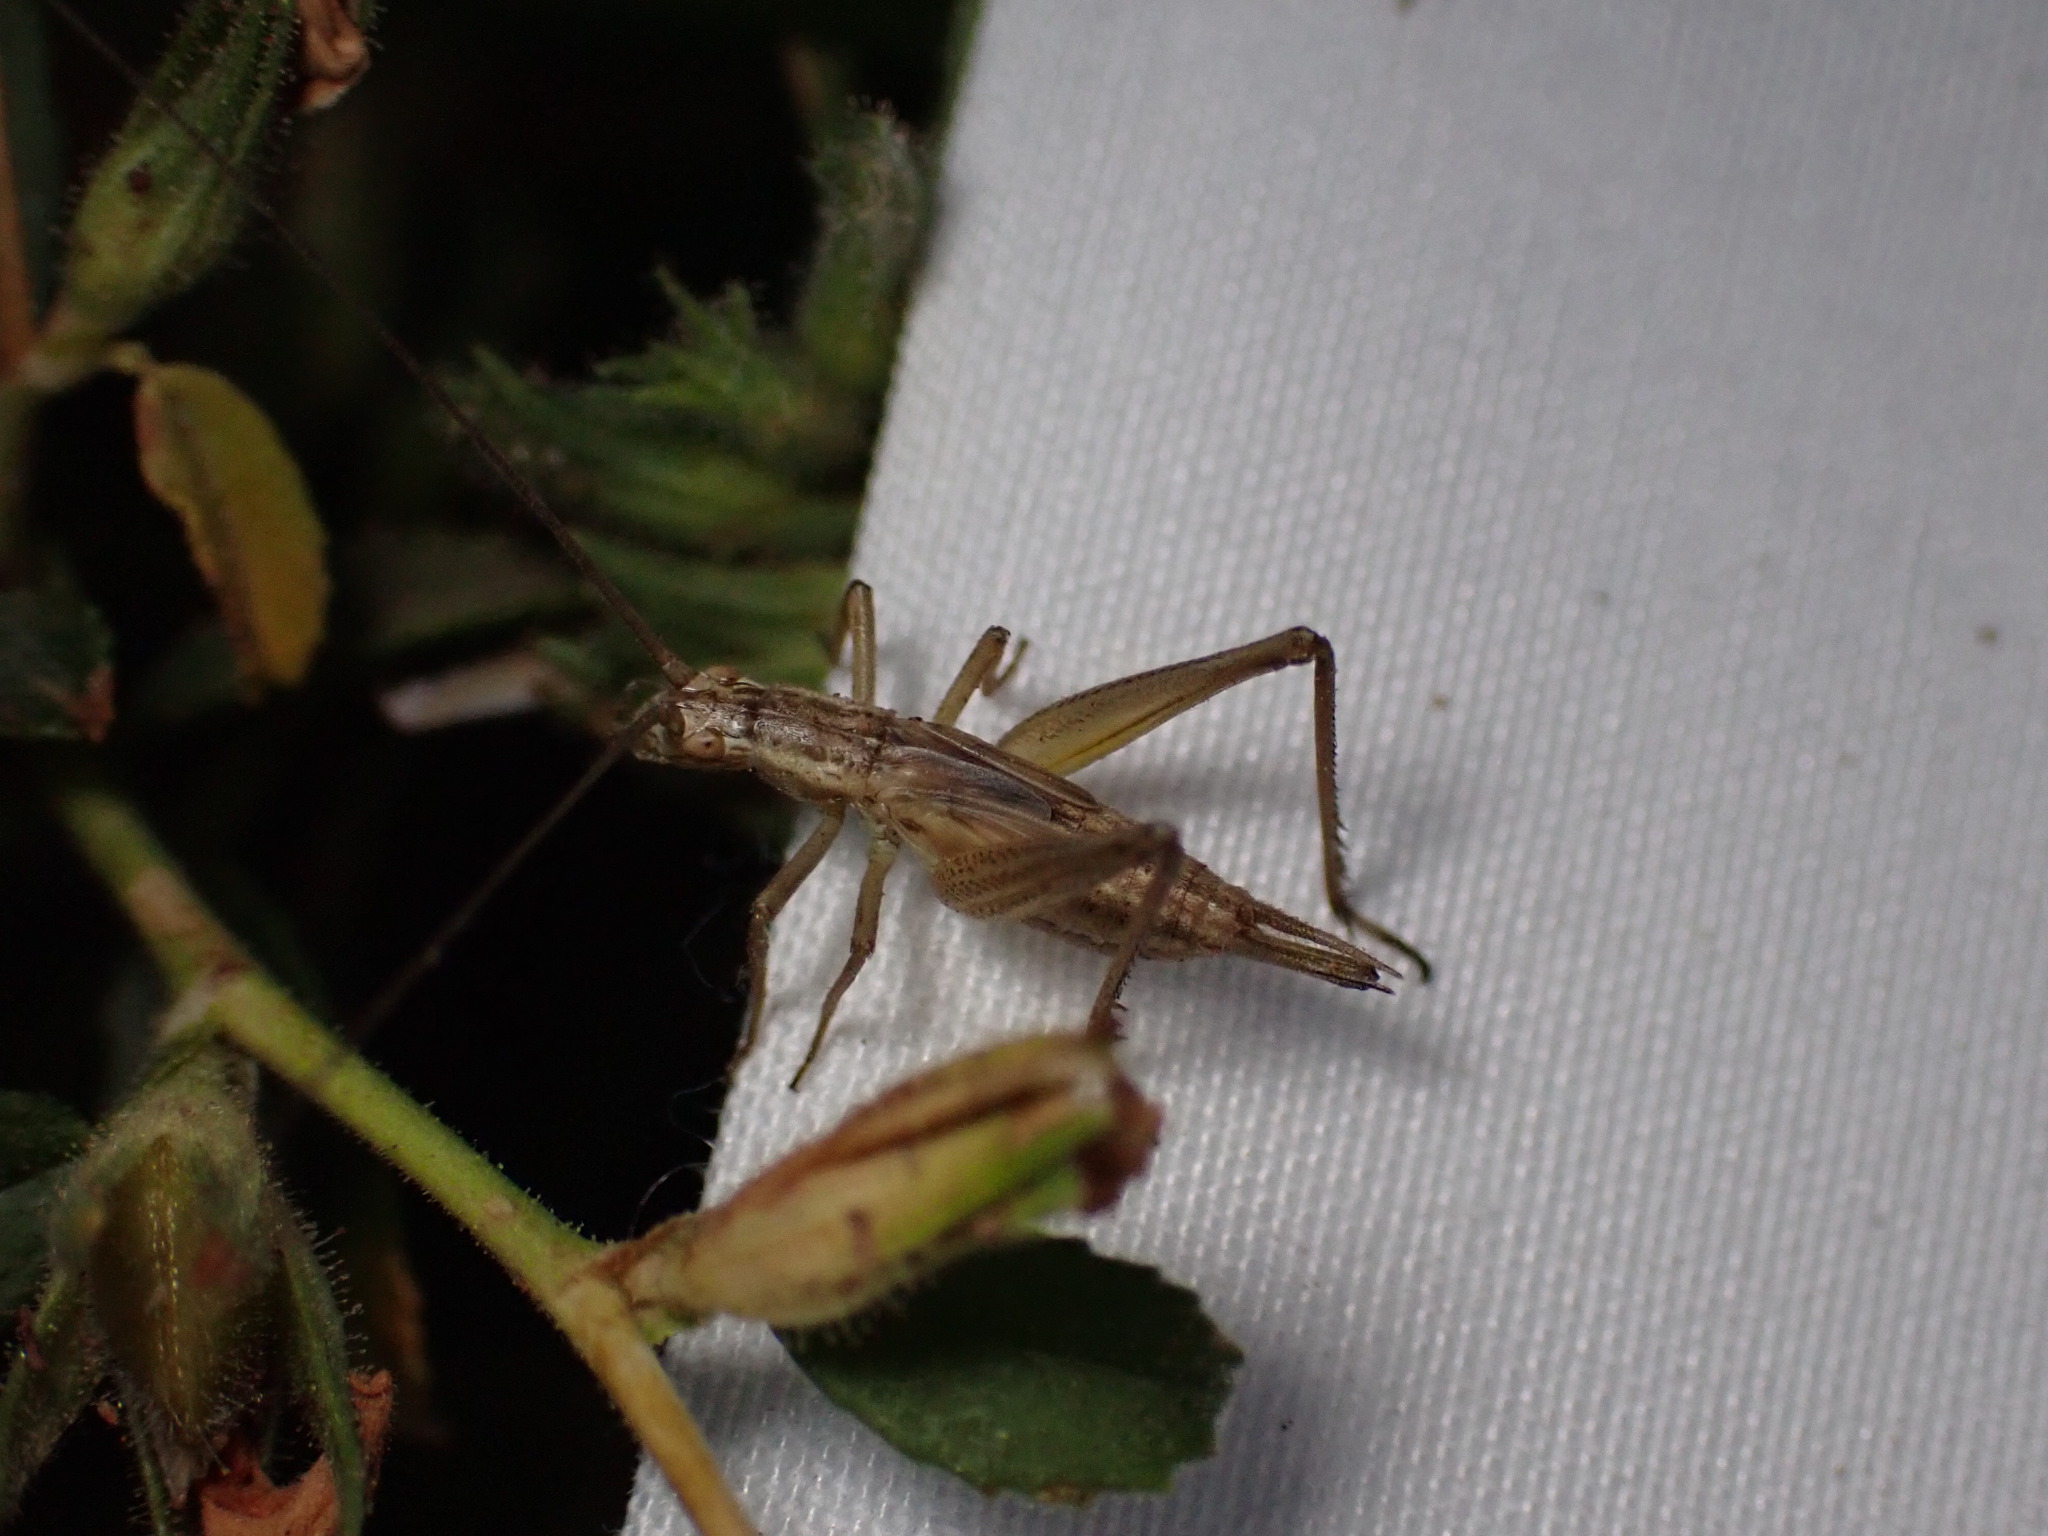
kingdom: Animalia
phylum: Arthropoda
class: Insecta
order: Orthoptera
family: Gryllidae
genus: Oecanthus
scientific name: Oecanthus pellucens
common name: Tree-cricket
